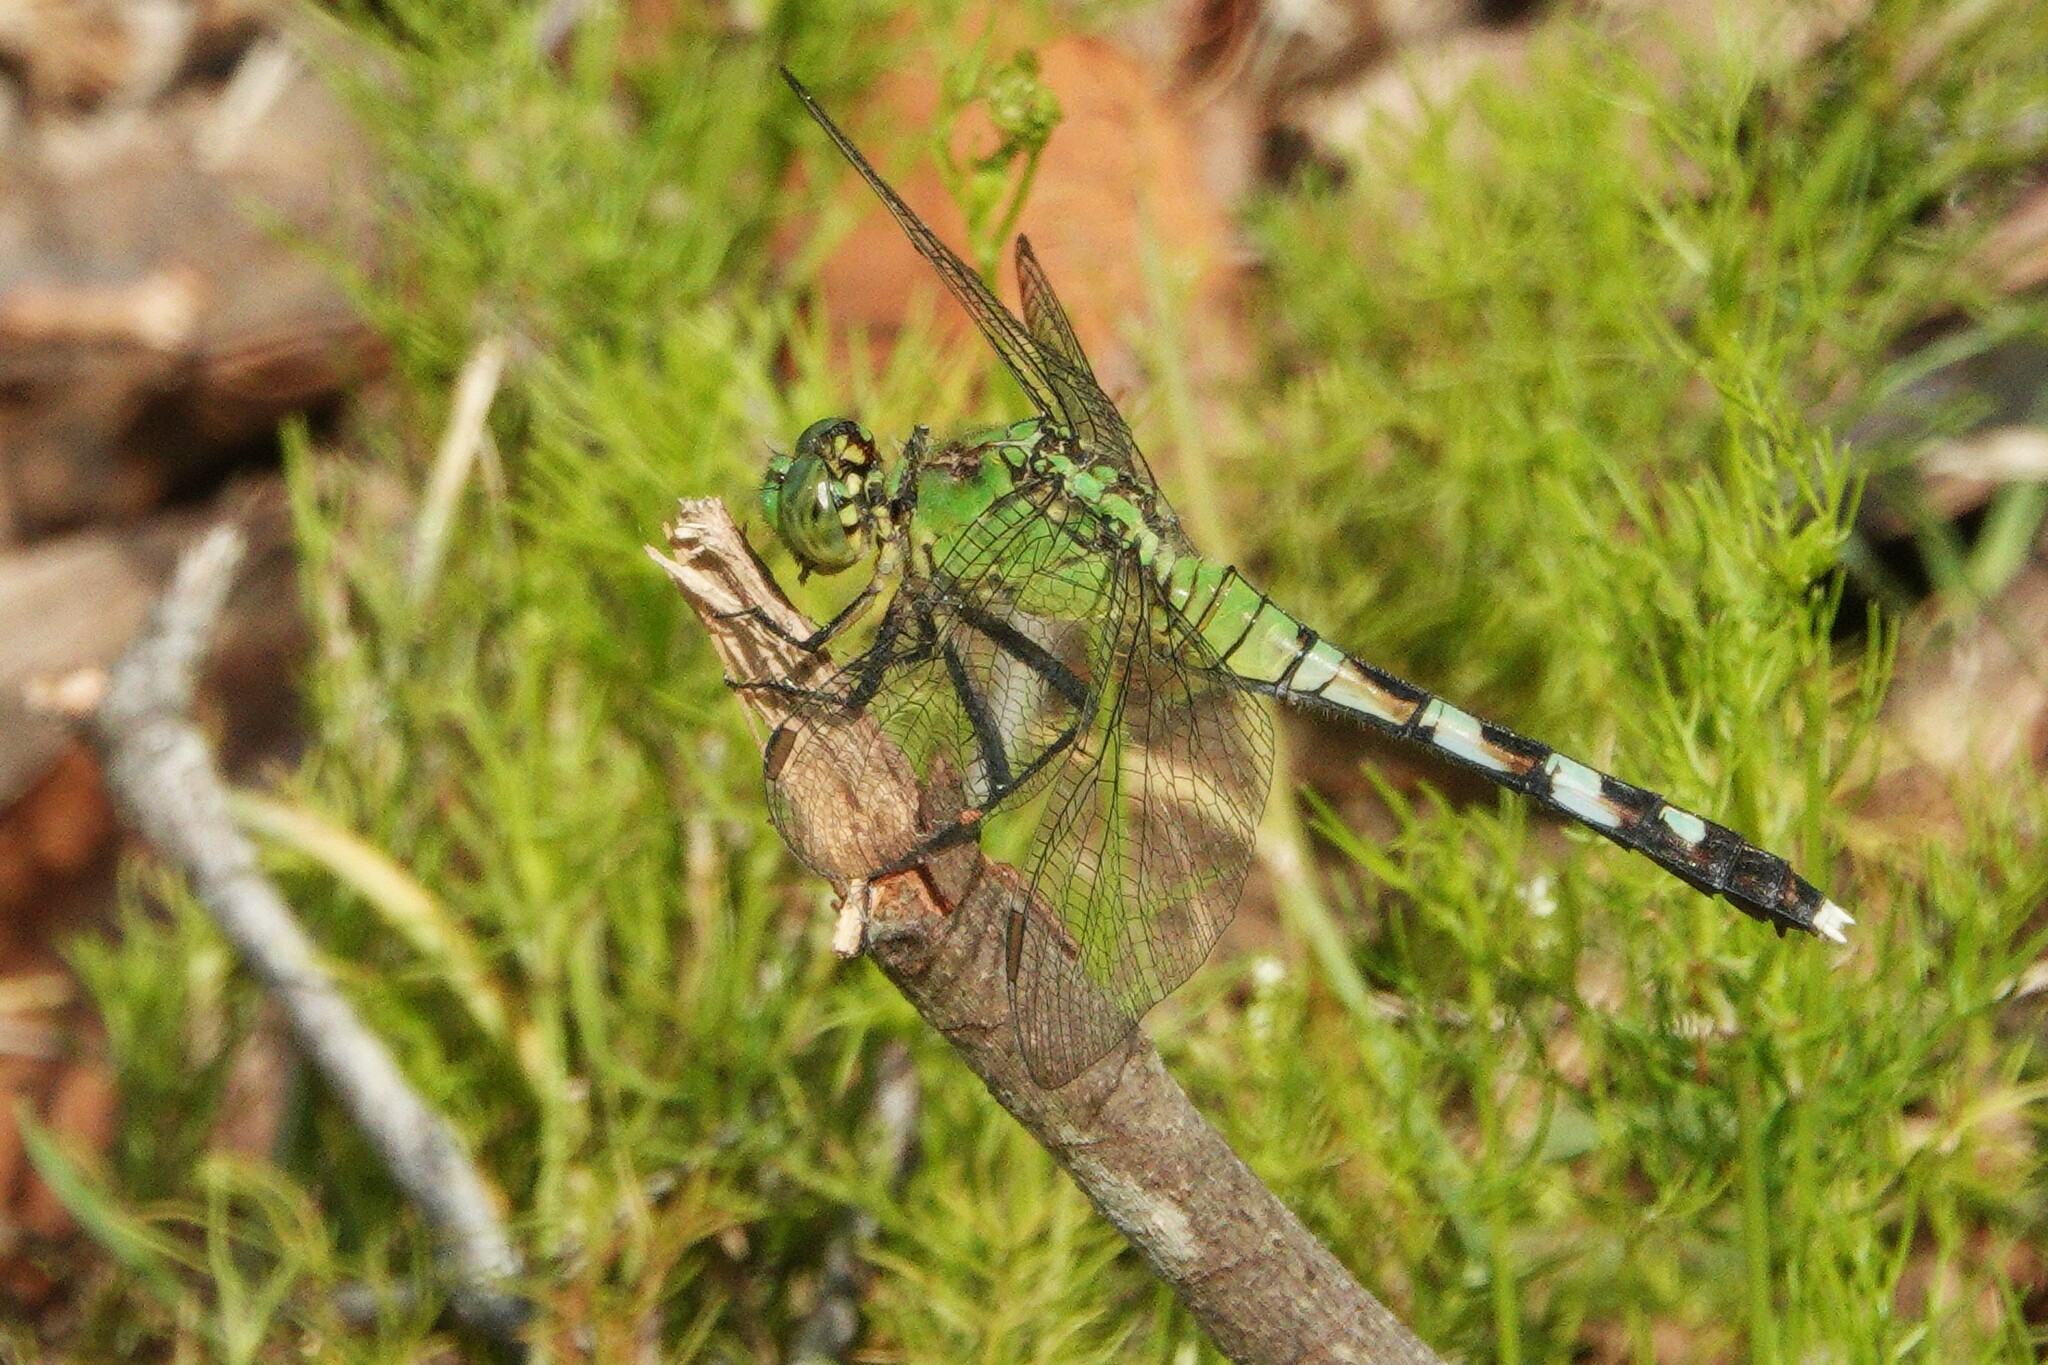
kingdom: Animalia
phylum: Arthropoda
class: Insecta
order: Odonata
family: Libellulidae
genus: Erythemis
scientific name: Erythemis simplicicollis
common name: Eastern pondhawk
